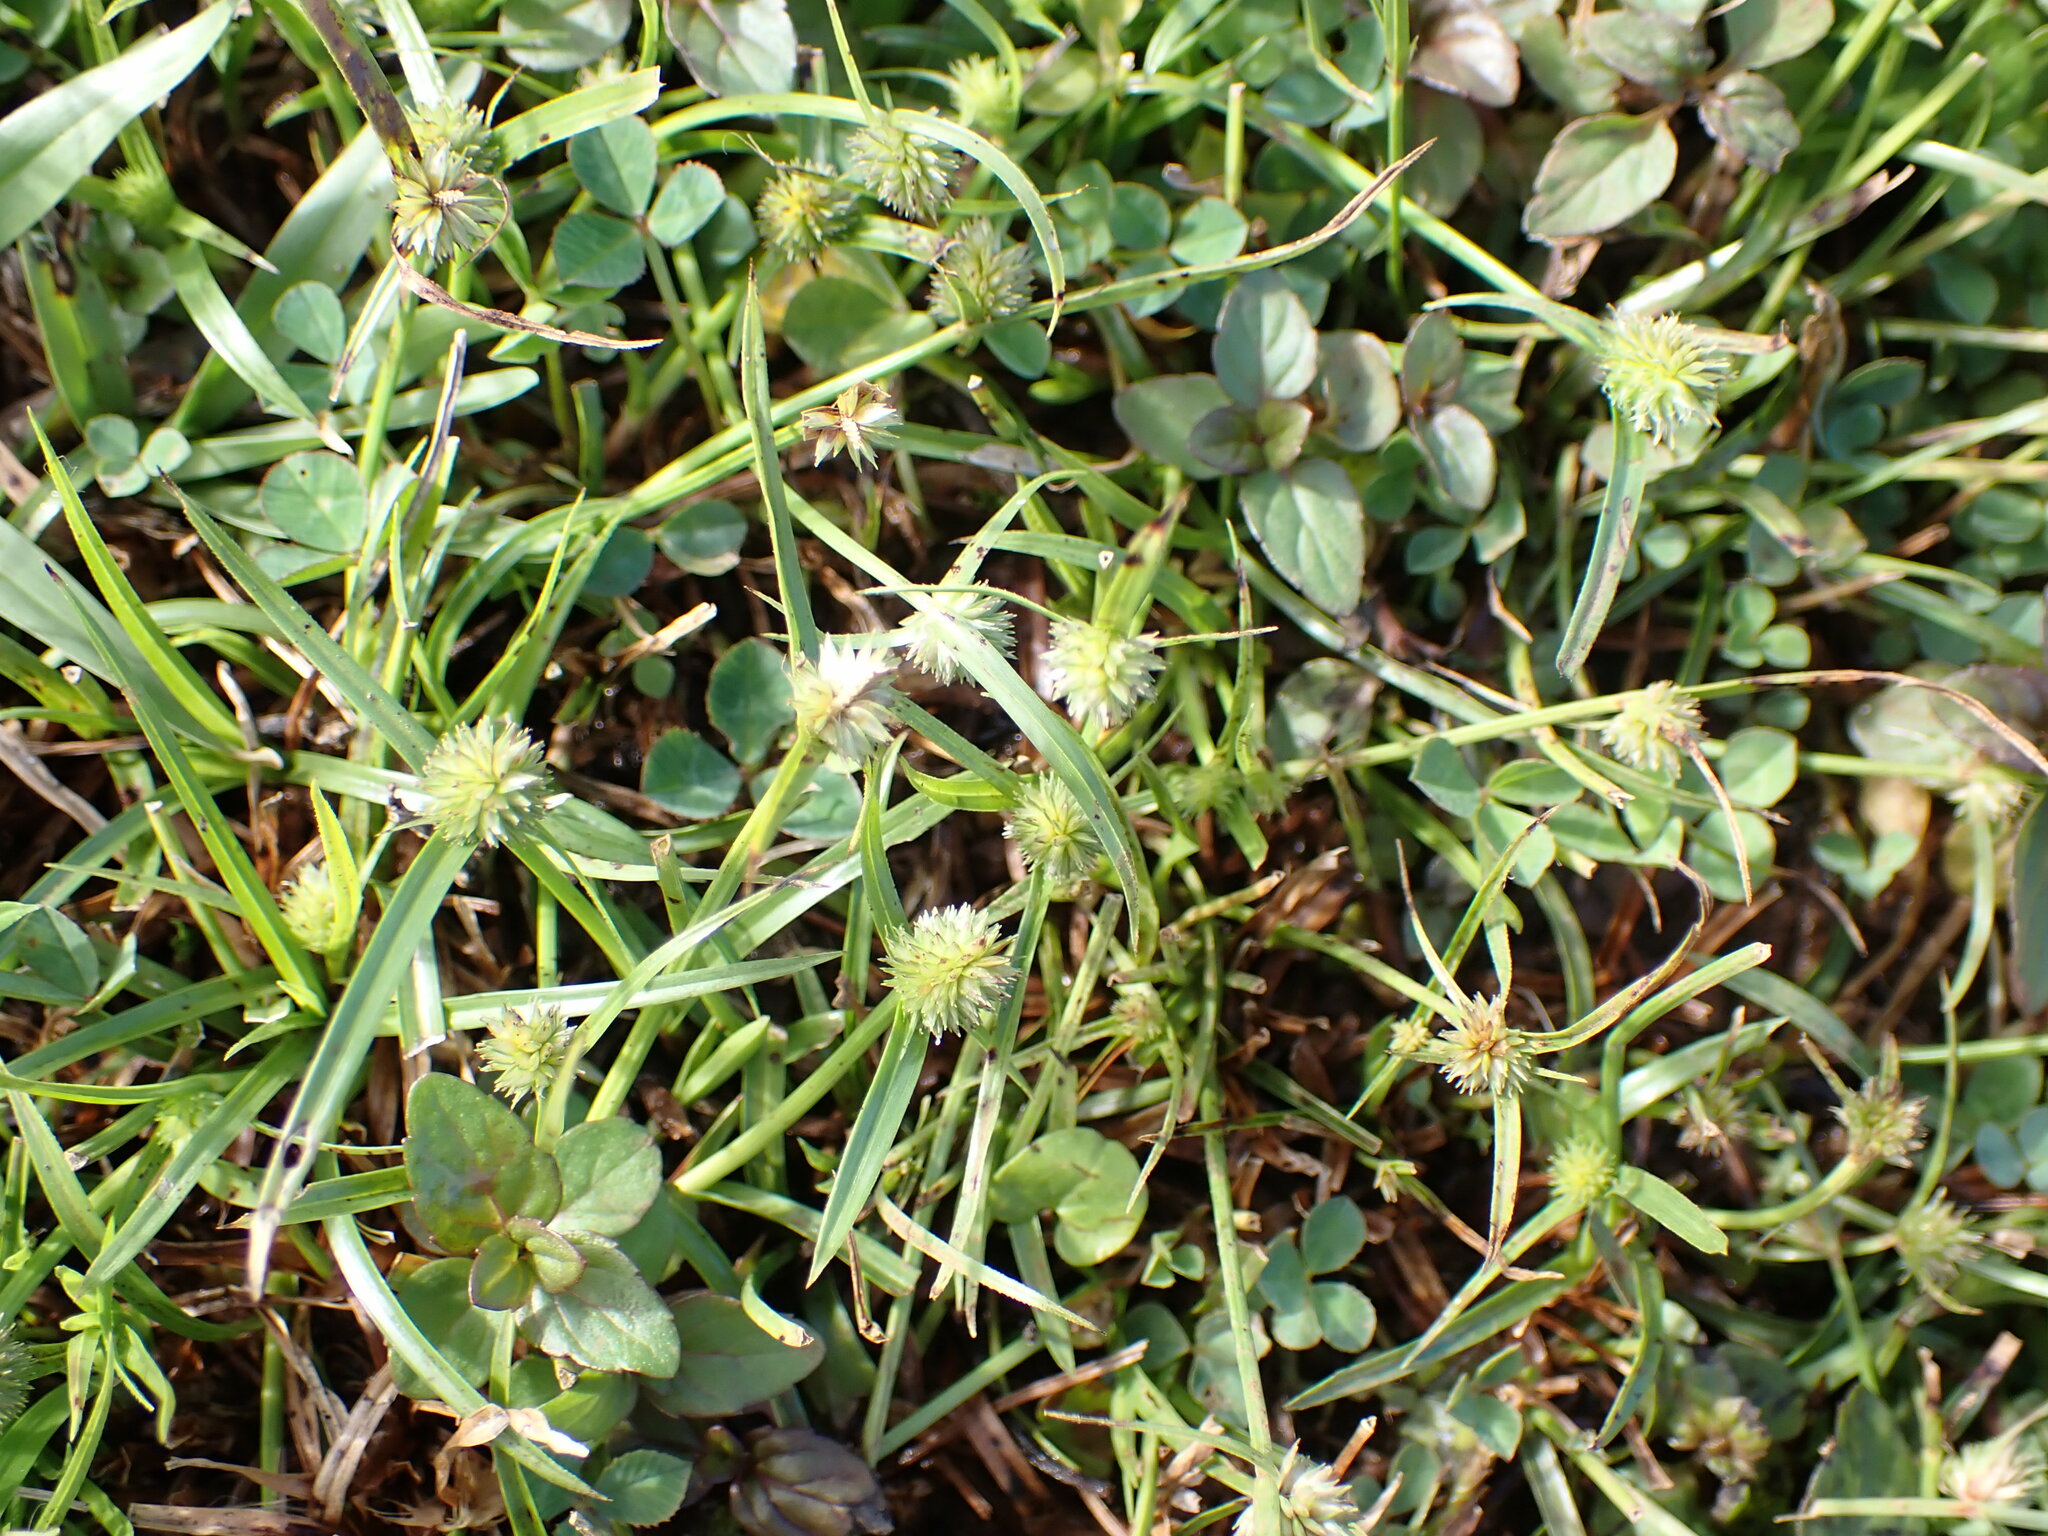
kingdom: Plantae
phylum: Tracheophyta
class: Liliopsida
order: Poales
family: Cyperaceae
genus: Cyperus
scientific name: Cyperus brevifolius
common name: Globe kyllinga
